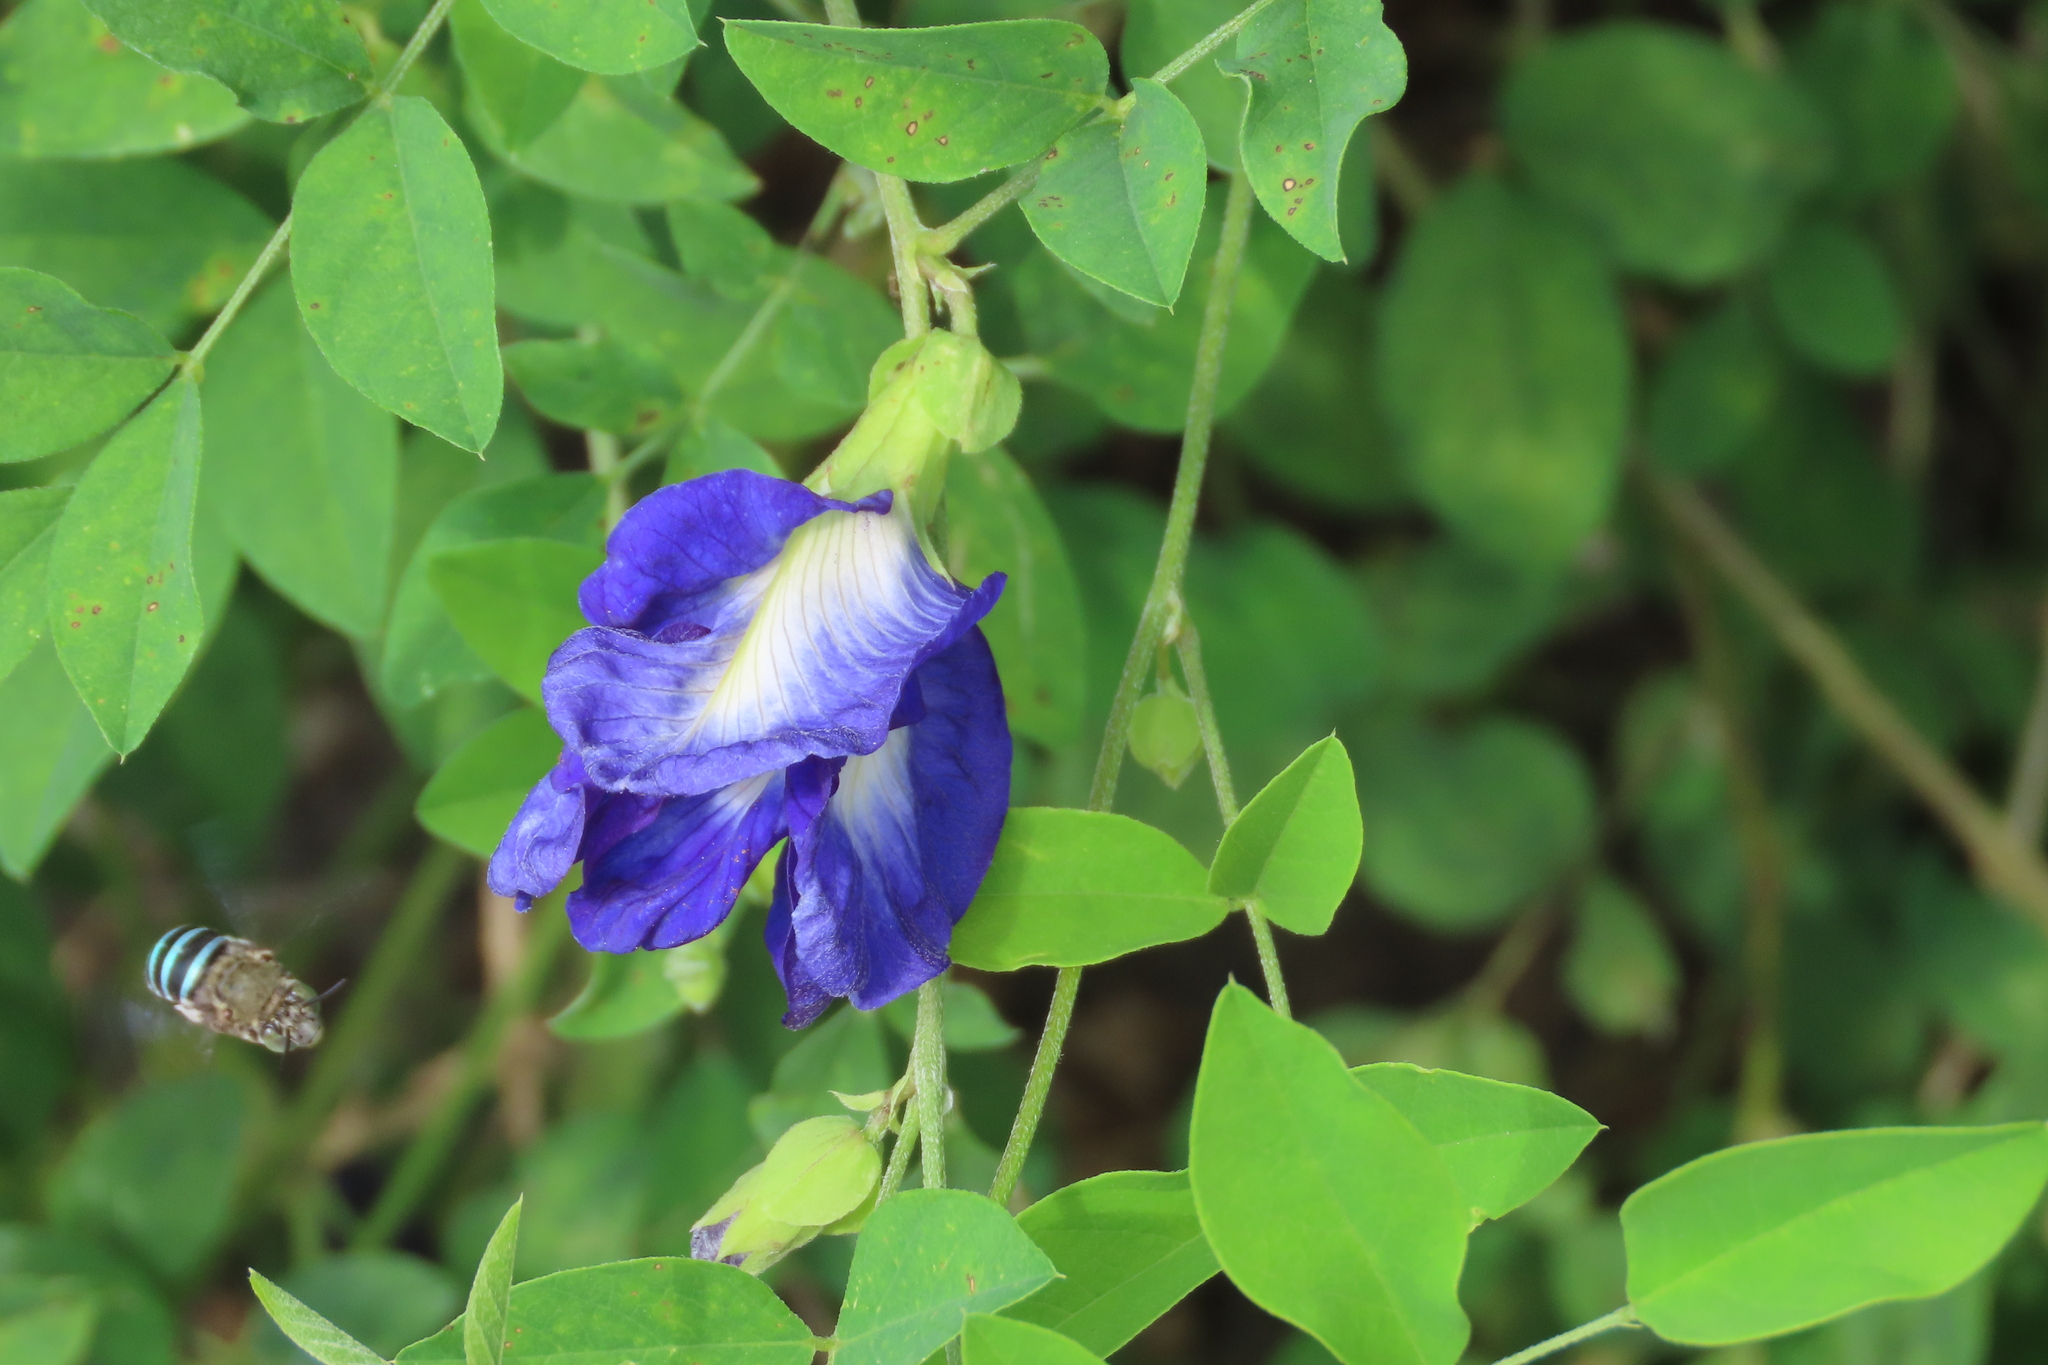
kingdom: Plantae
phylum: Tracheophyta
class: Magnoliopsida
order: Fabales
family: Fabaceae
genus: Clitoria
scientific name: Clitoria ternatea
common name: Asian pigeonwings
